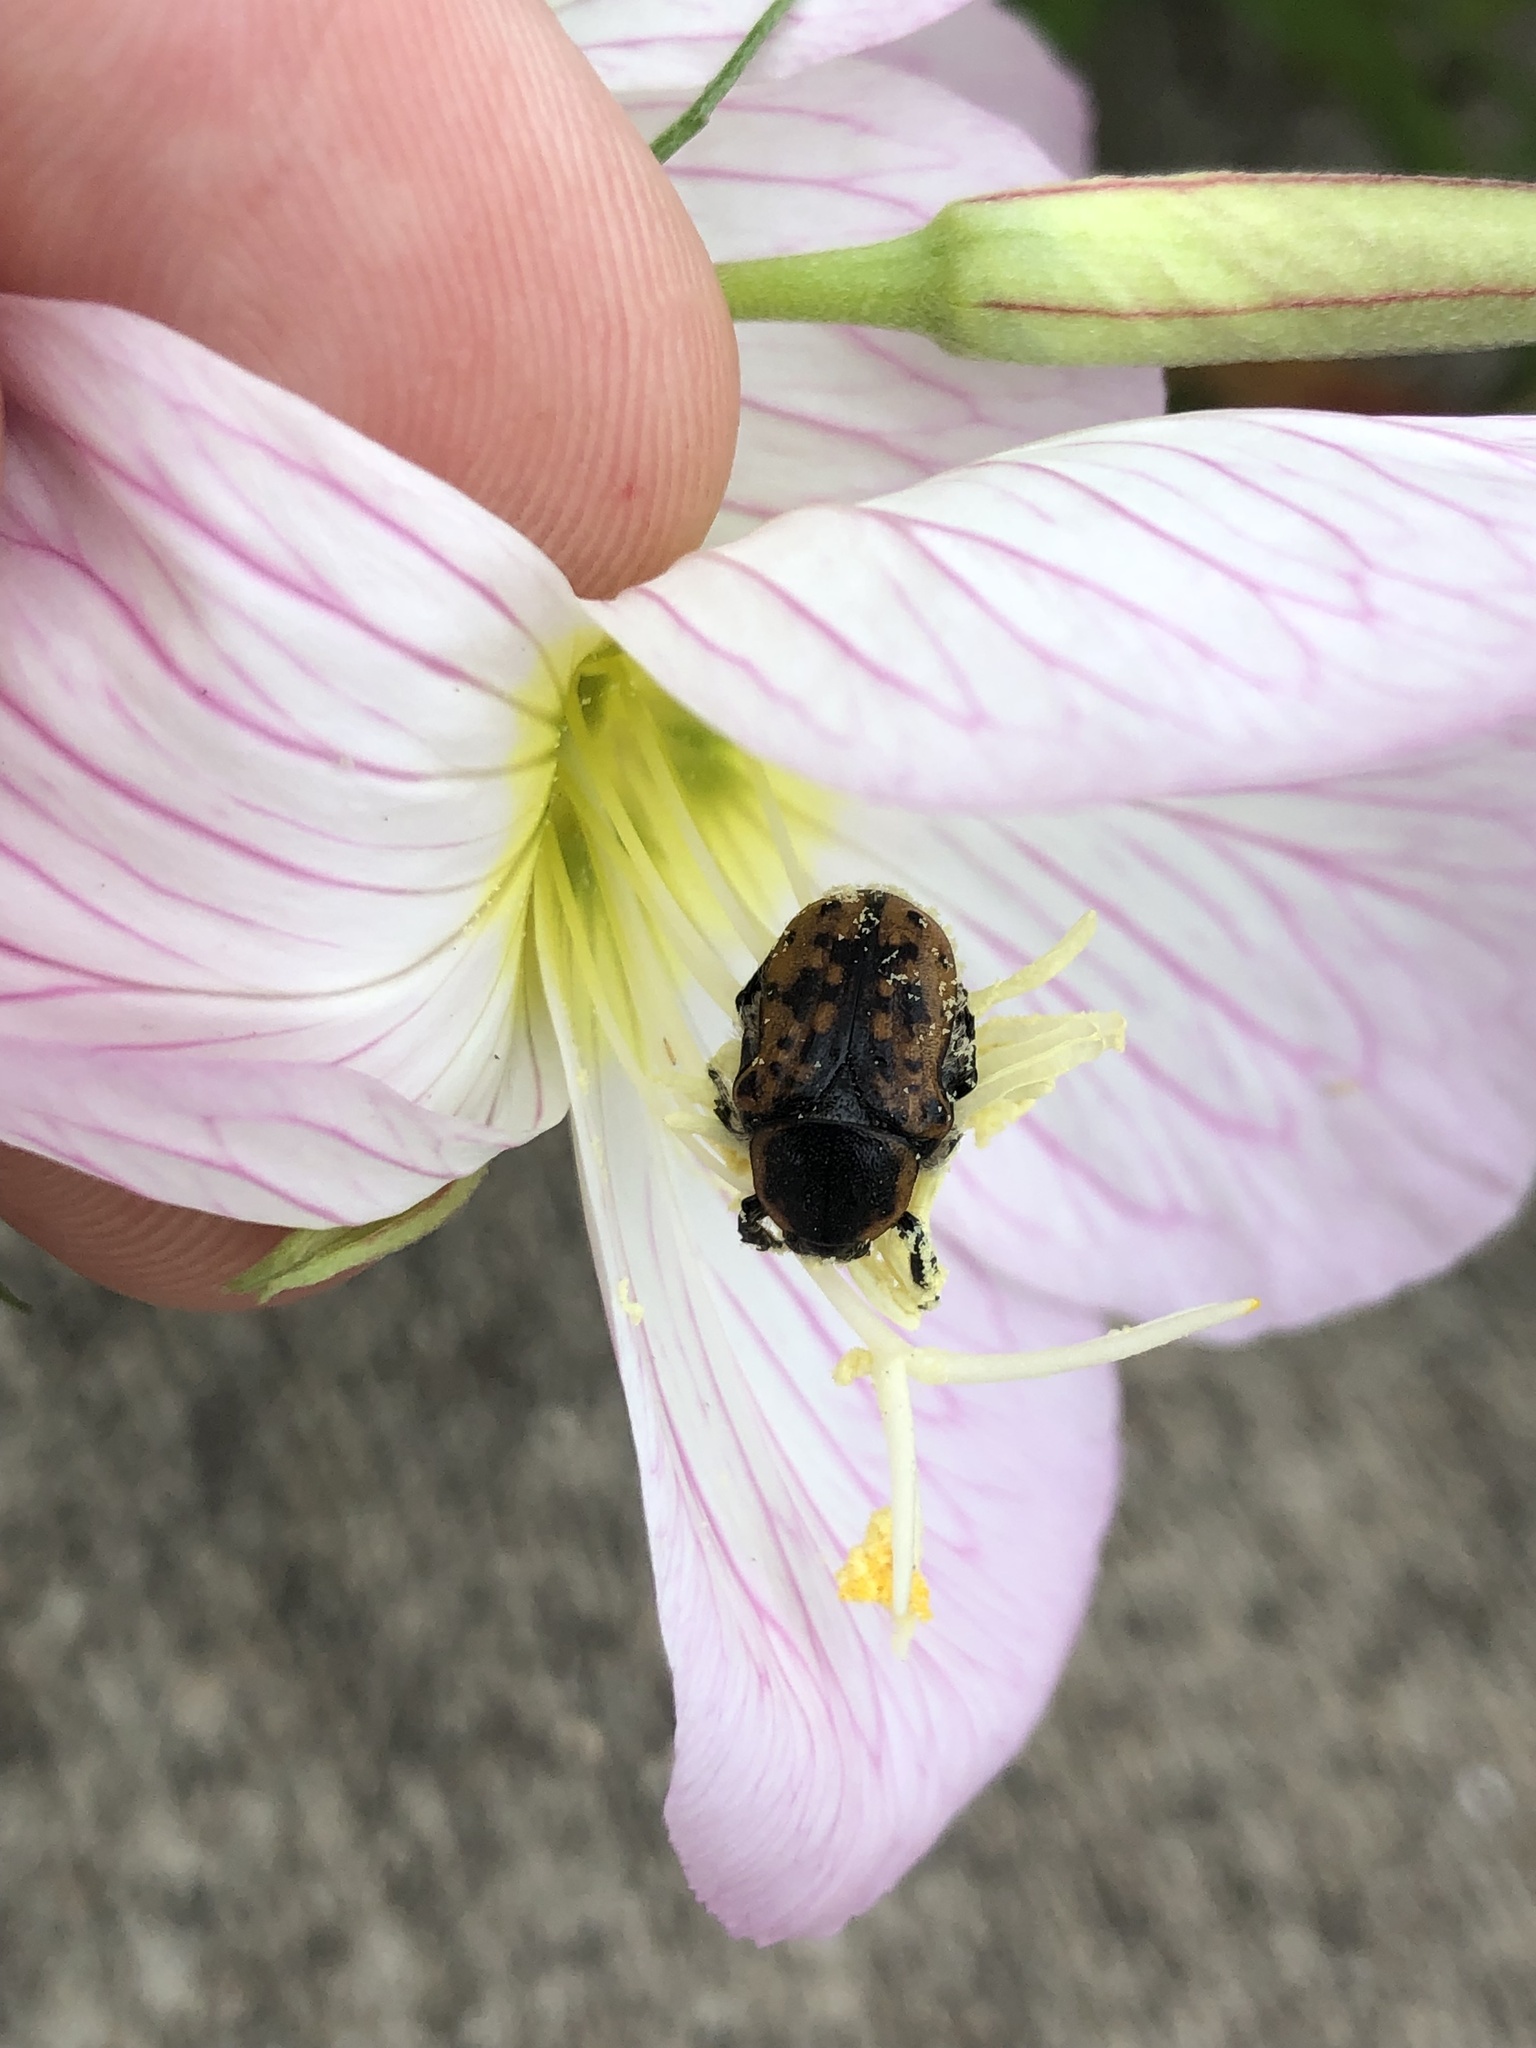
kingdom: Animalia
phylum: Arthropoda
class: Insecta
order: Coleoptera
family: Scarabaeidae
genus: Euphoria
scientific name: Euphoria kernii
